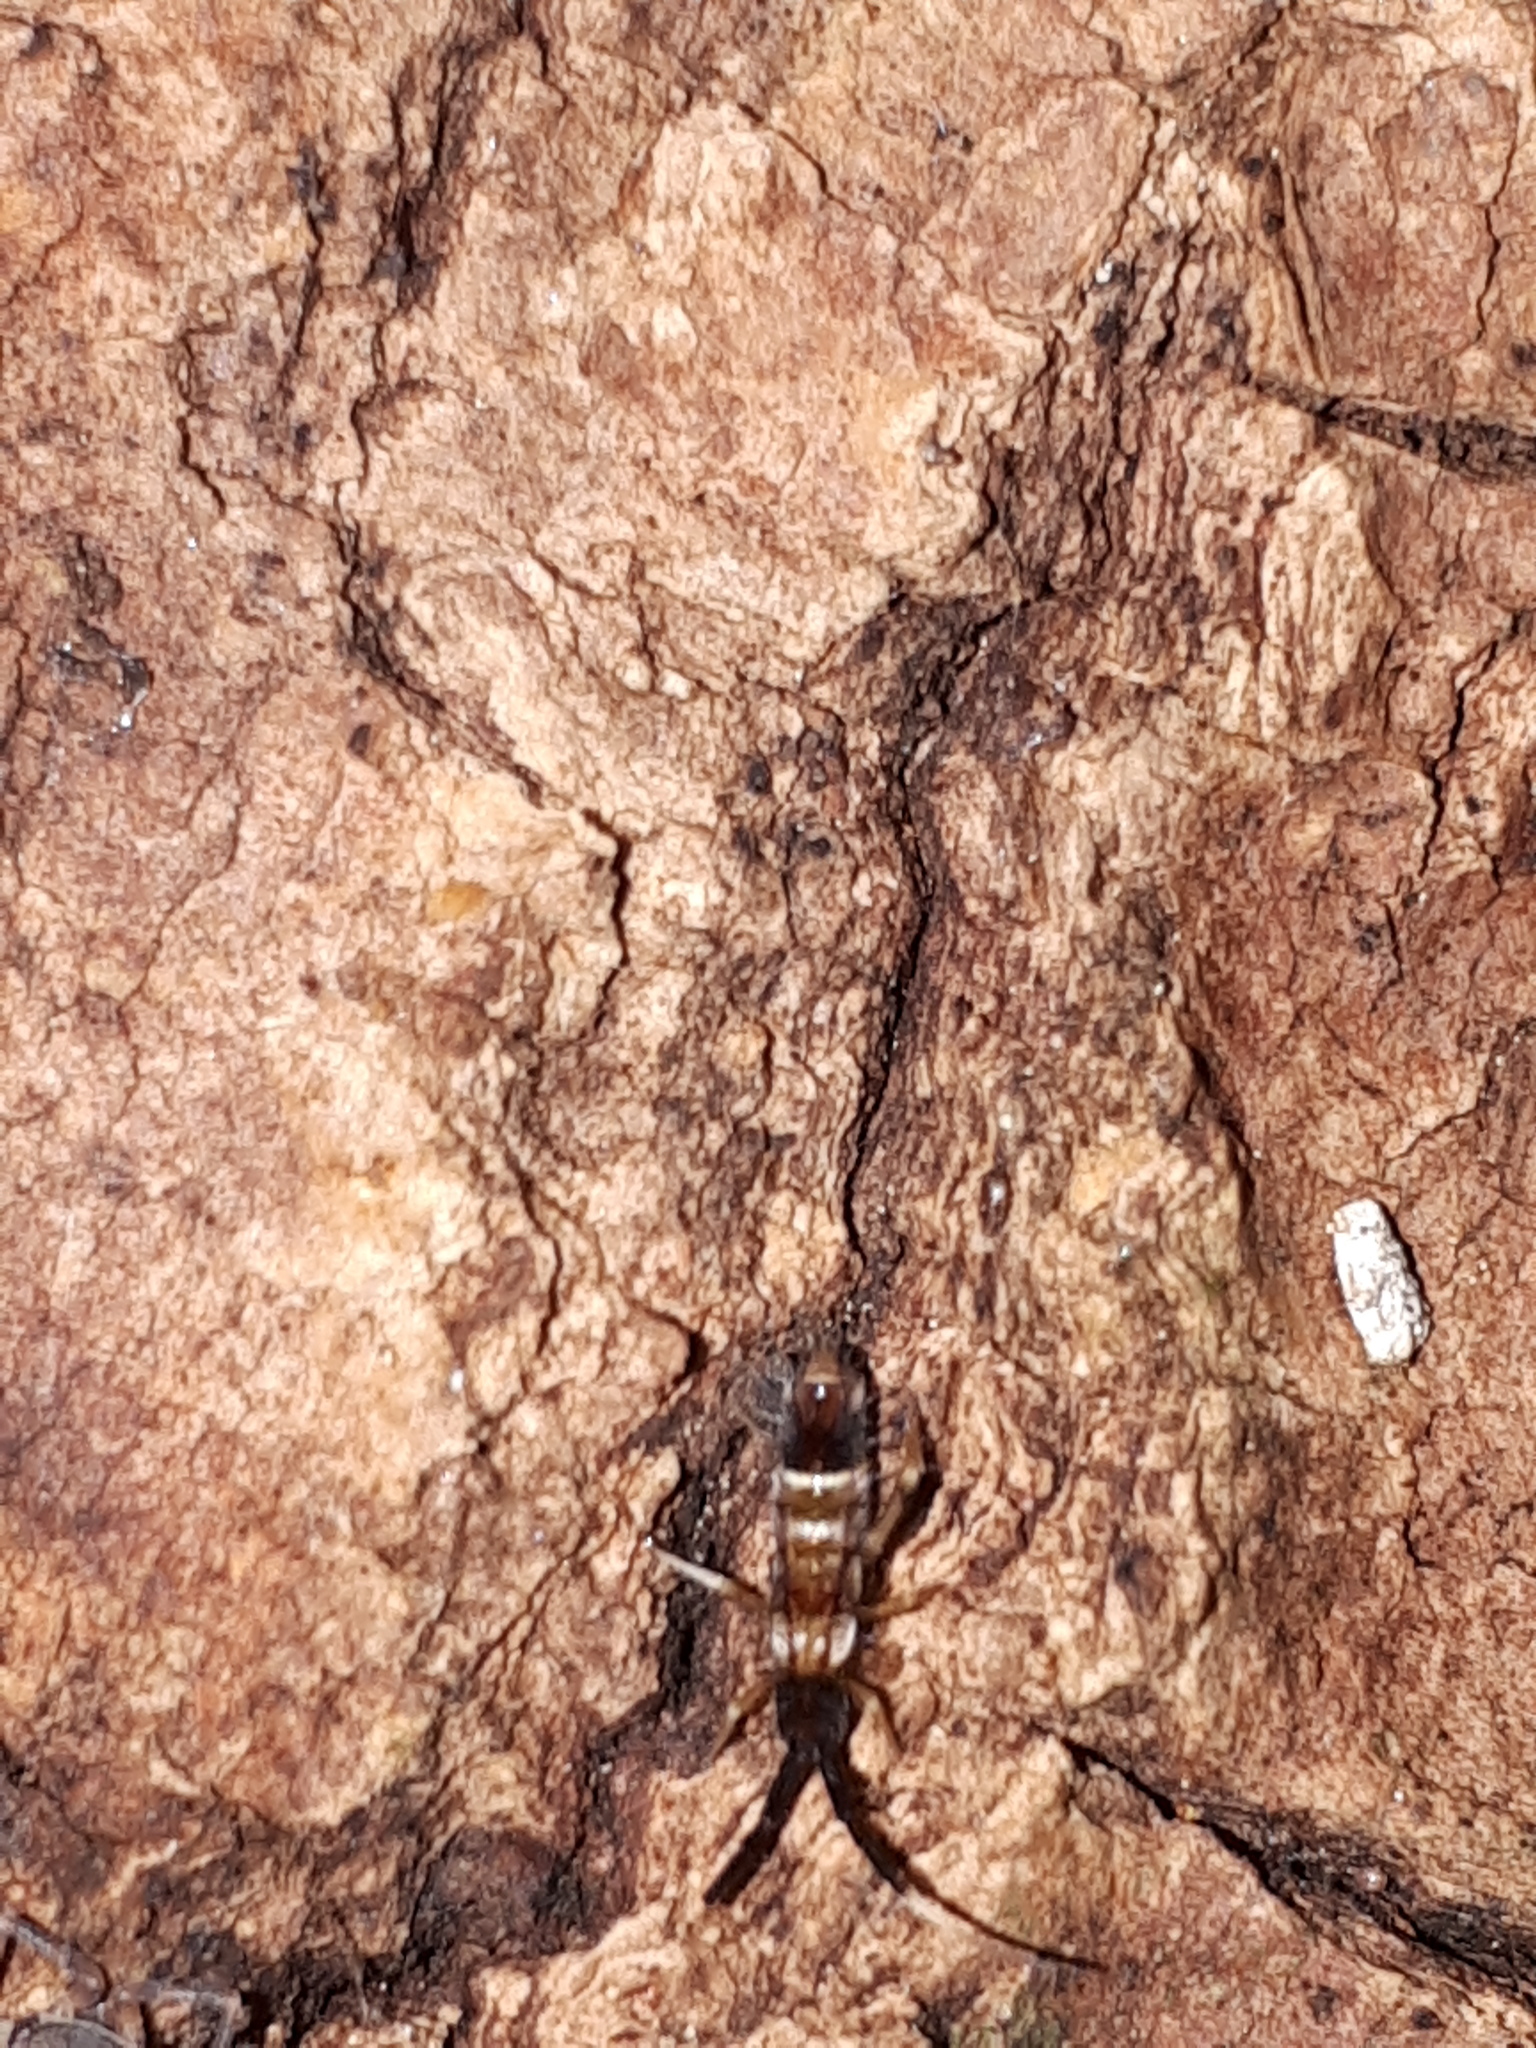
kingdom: Animalia
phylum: Arthropoda
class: Collembola
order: Entomobryomorpha
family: Entomobryidae
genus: Entomobrya
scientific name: Entomobrya nivalis
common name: Cosmopolitan springtail
